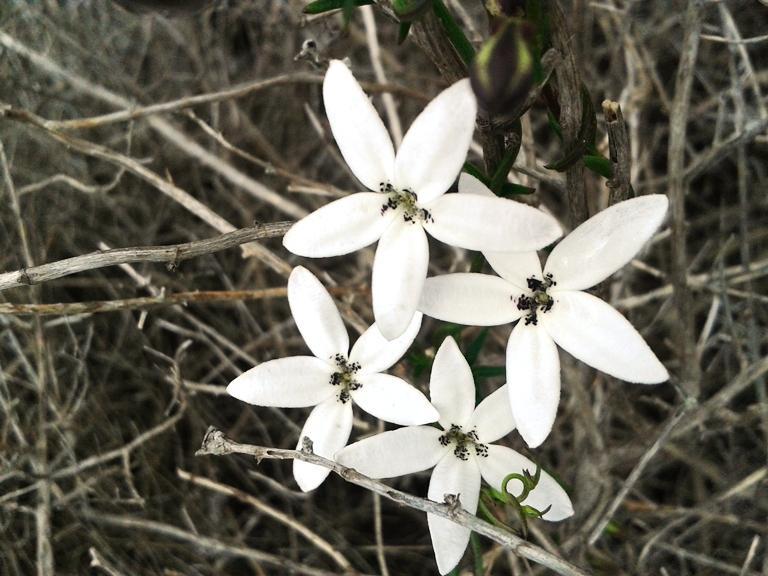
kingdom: Plantae
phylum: Tracheophyta
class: Magnoliopsida
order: Asterales
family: Campanulaceae
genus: Cyphia
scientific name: Cyphia volubilis
